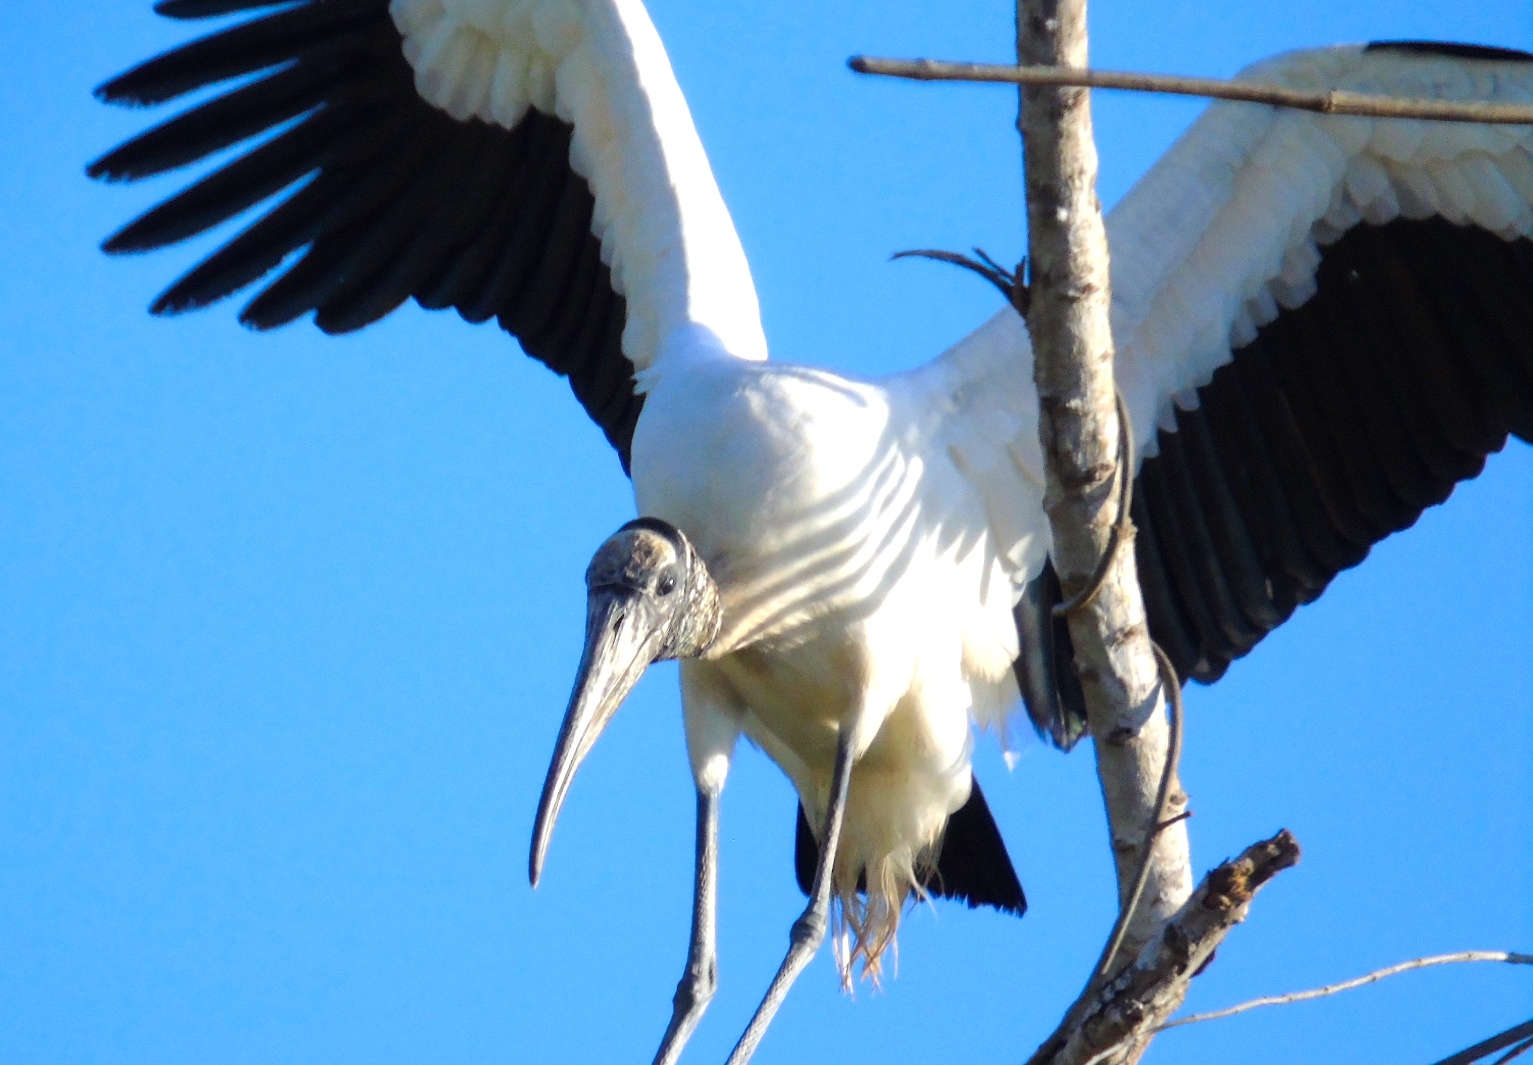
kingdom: Animalia
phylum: Chordata
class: Aves
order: Ciconiiformes
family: Ciconiidae
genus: Mycteria
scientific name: Mycteria americana
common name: Wood stork
